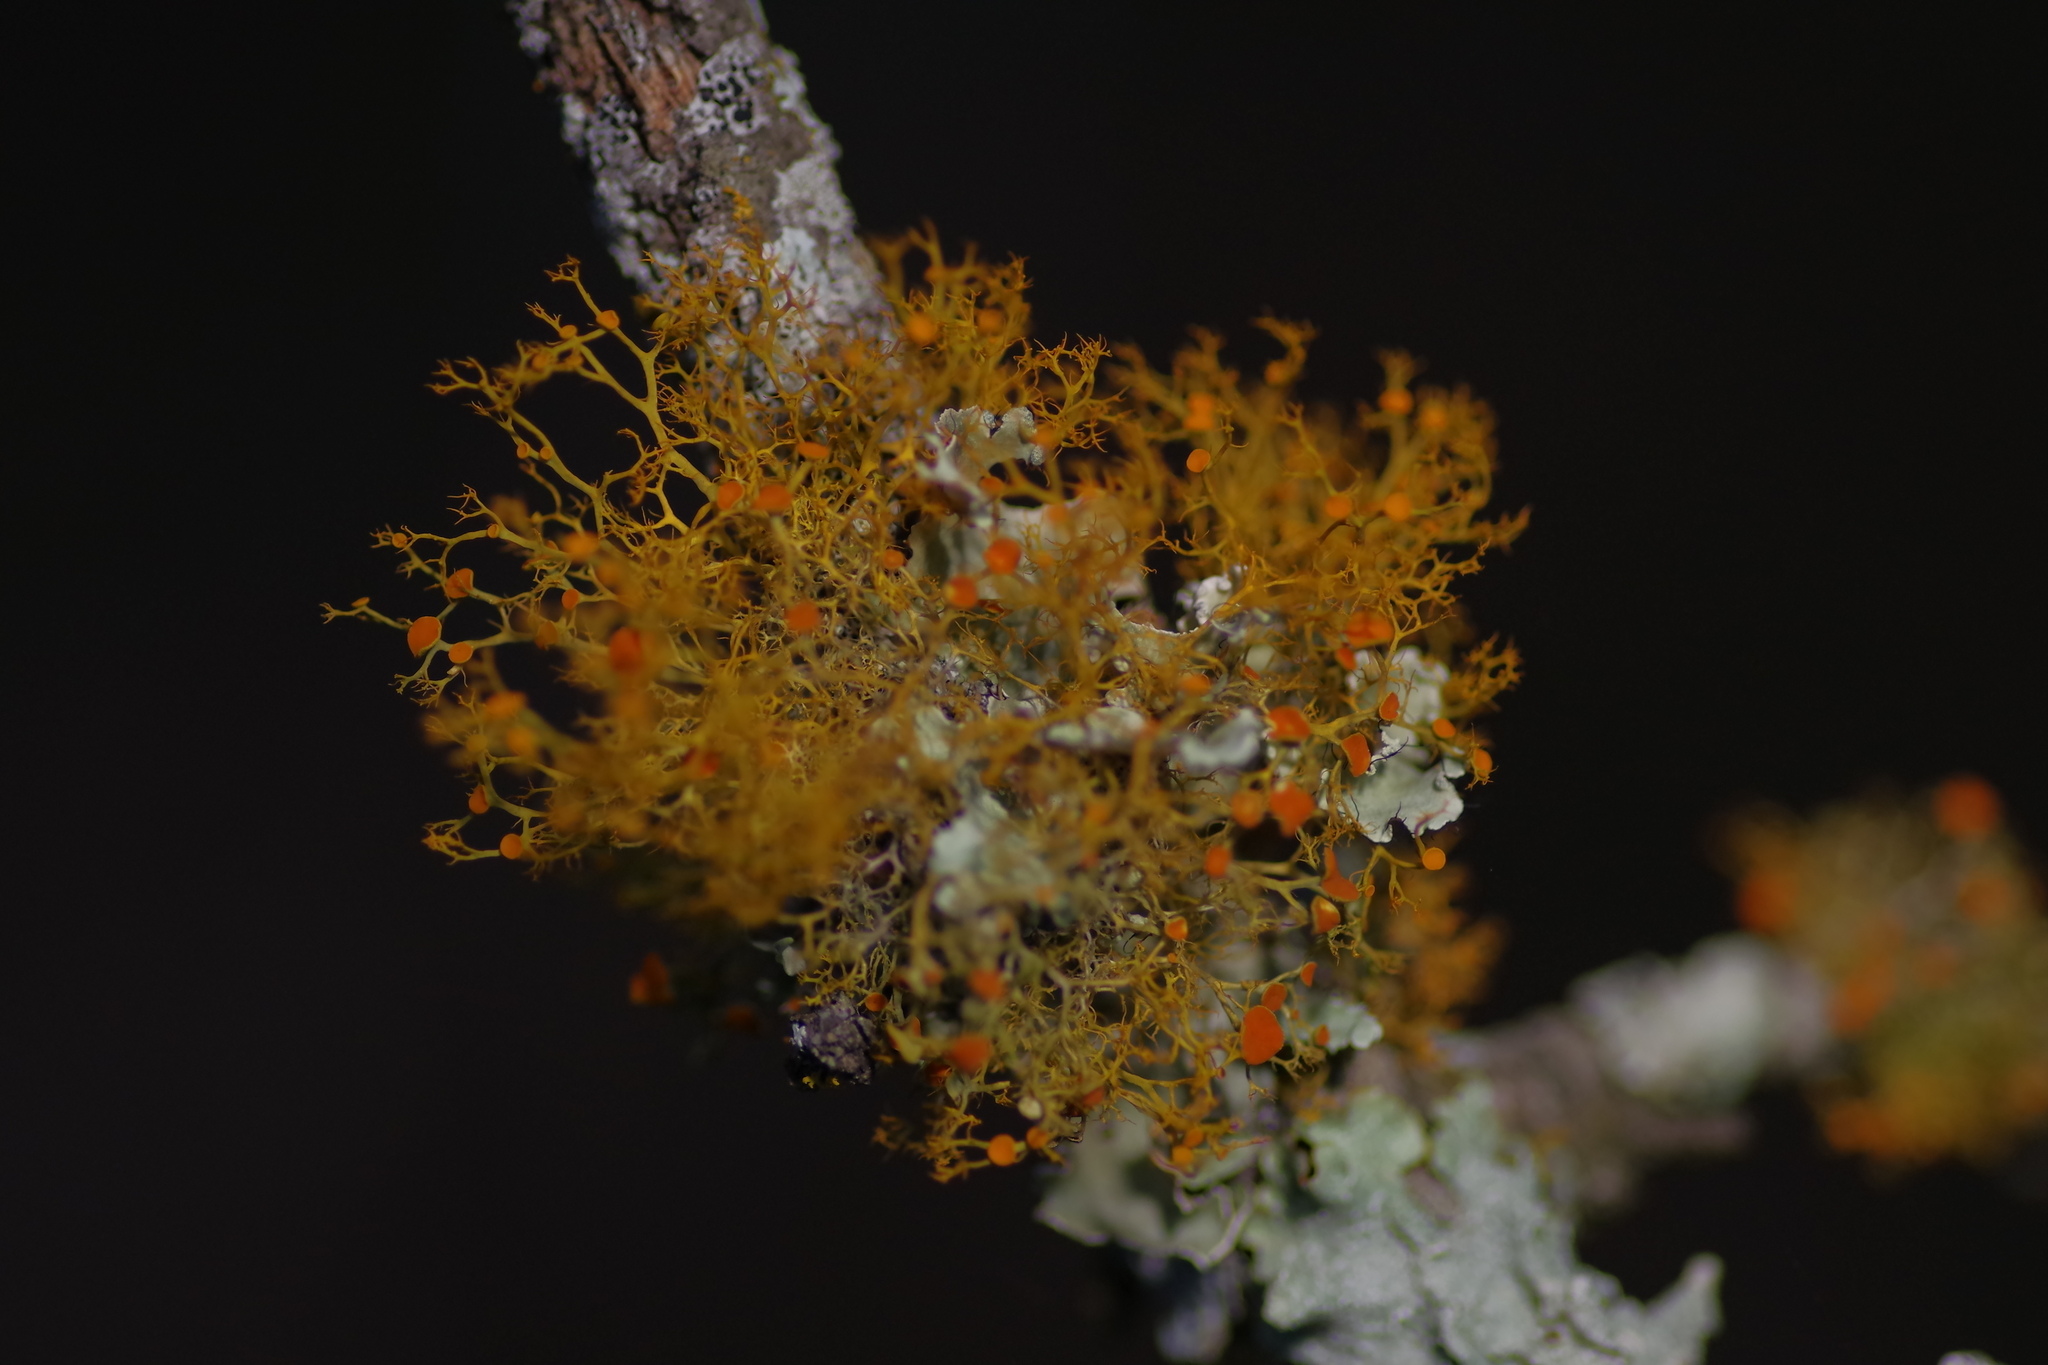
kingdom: Fungi
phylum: Ascomycota
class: Lecanoromycetes
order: Teloschistales
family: Teloschistaceae
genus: Teloschistes
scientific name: Teloschistes exilis
